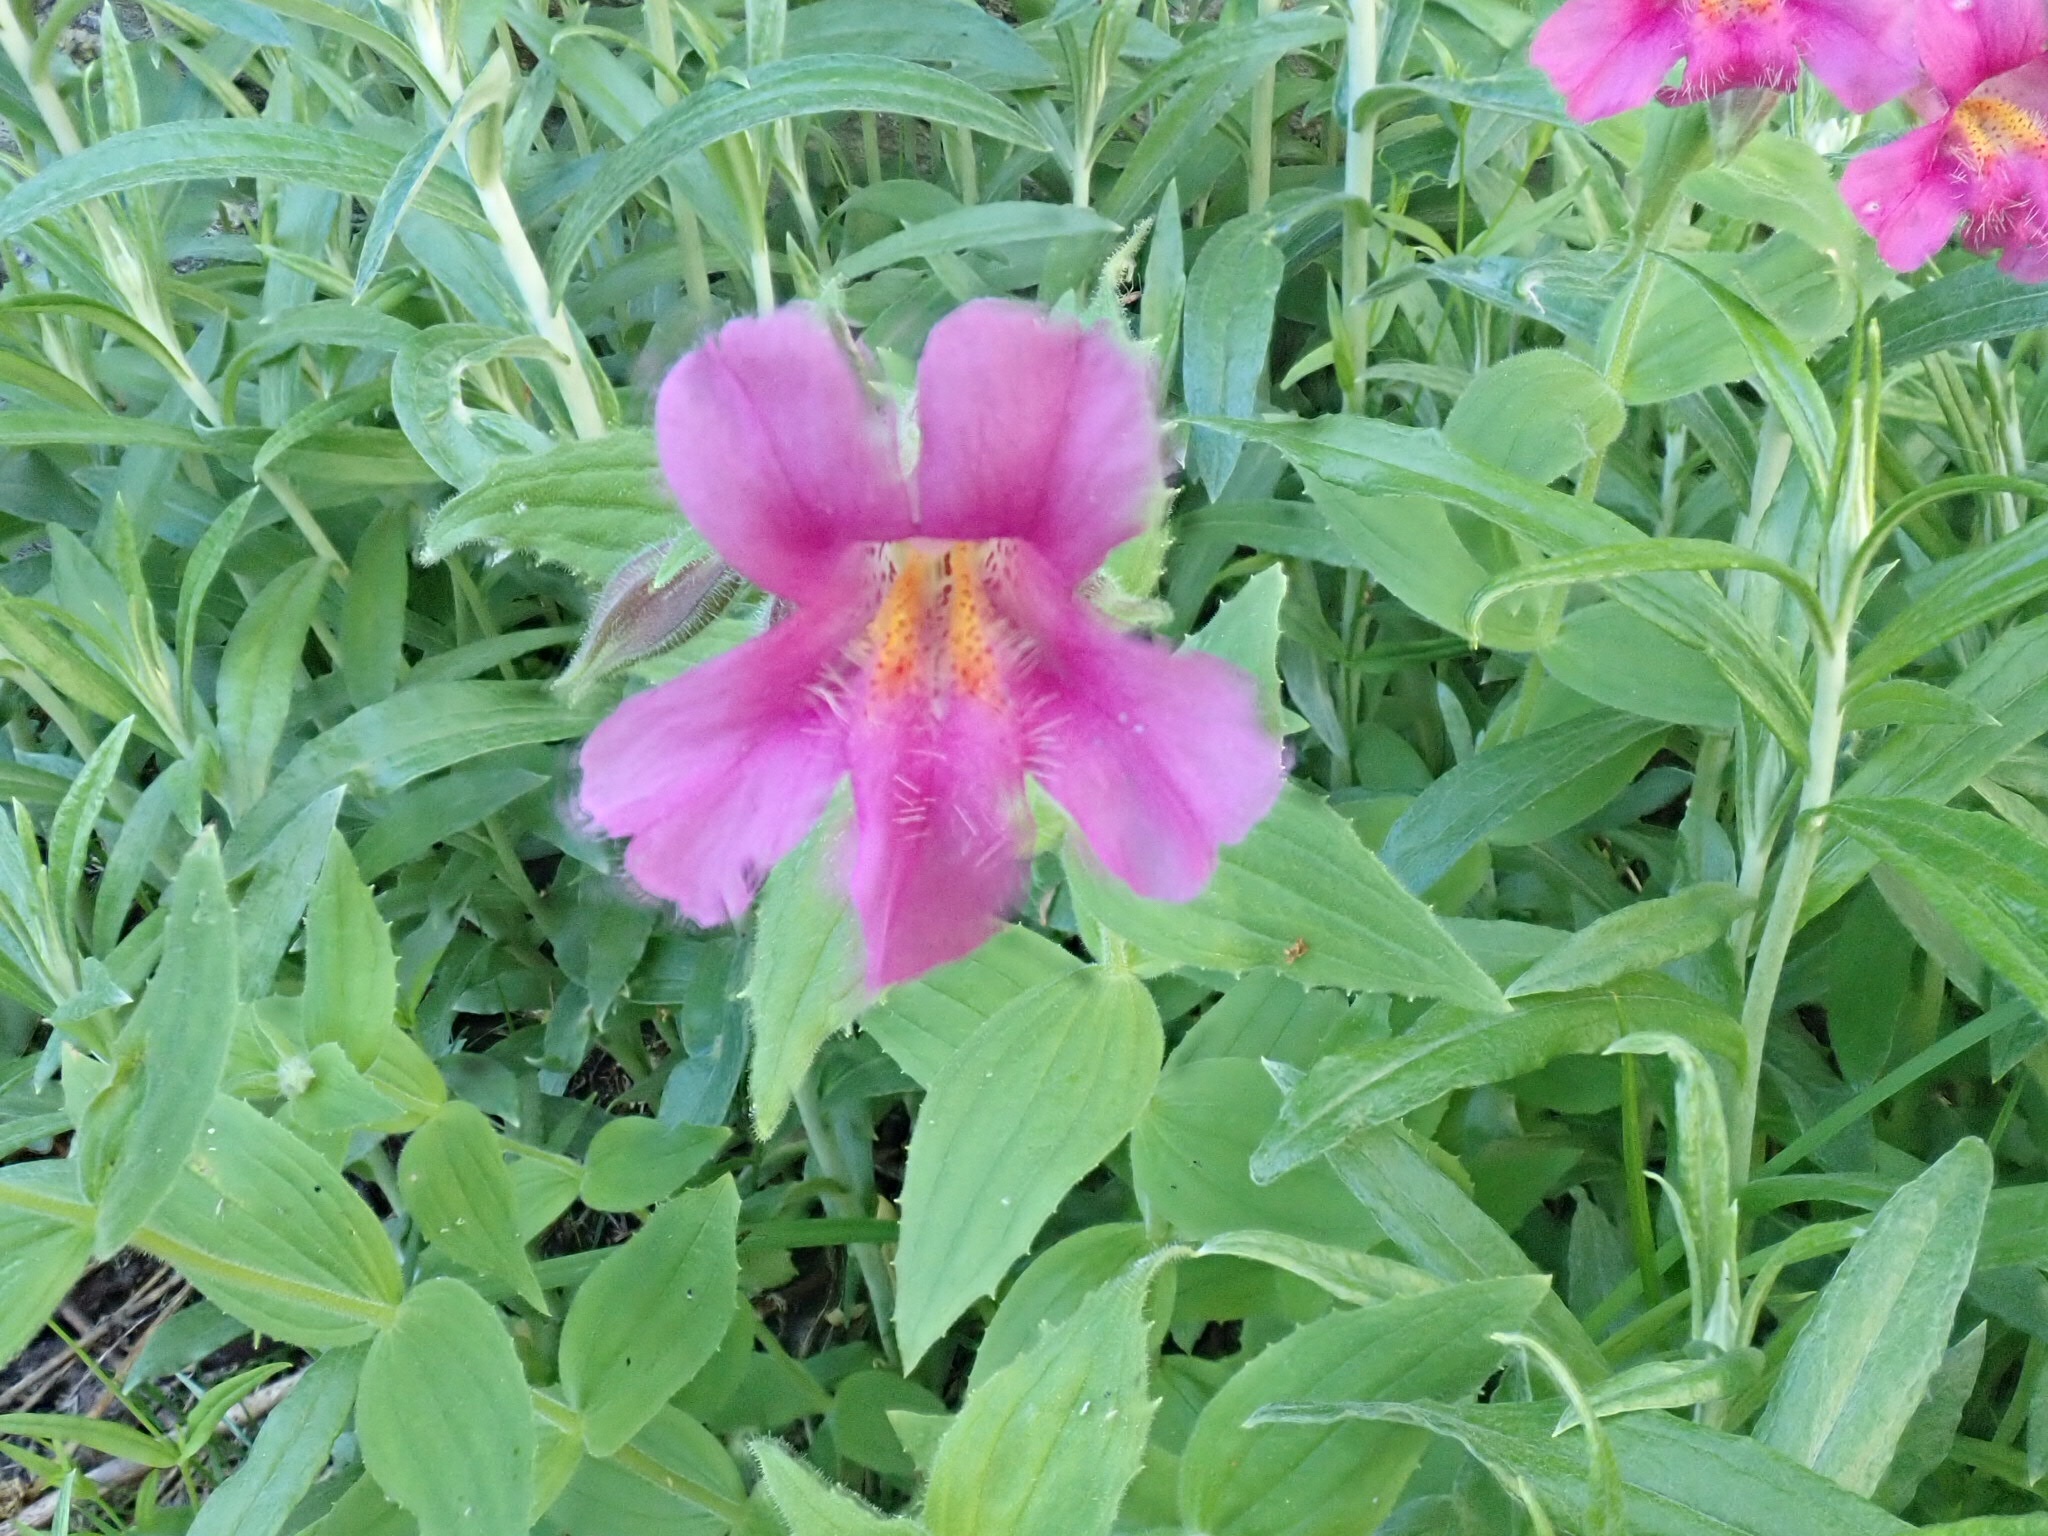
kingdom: Plantae
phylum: Tracheophyta
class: Magnoliopsida
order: Lamiales
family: Phrymaceae
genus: Erythranthe
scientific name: Erythranthe lewisii
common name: Lewis's monkey-flower
